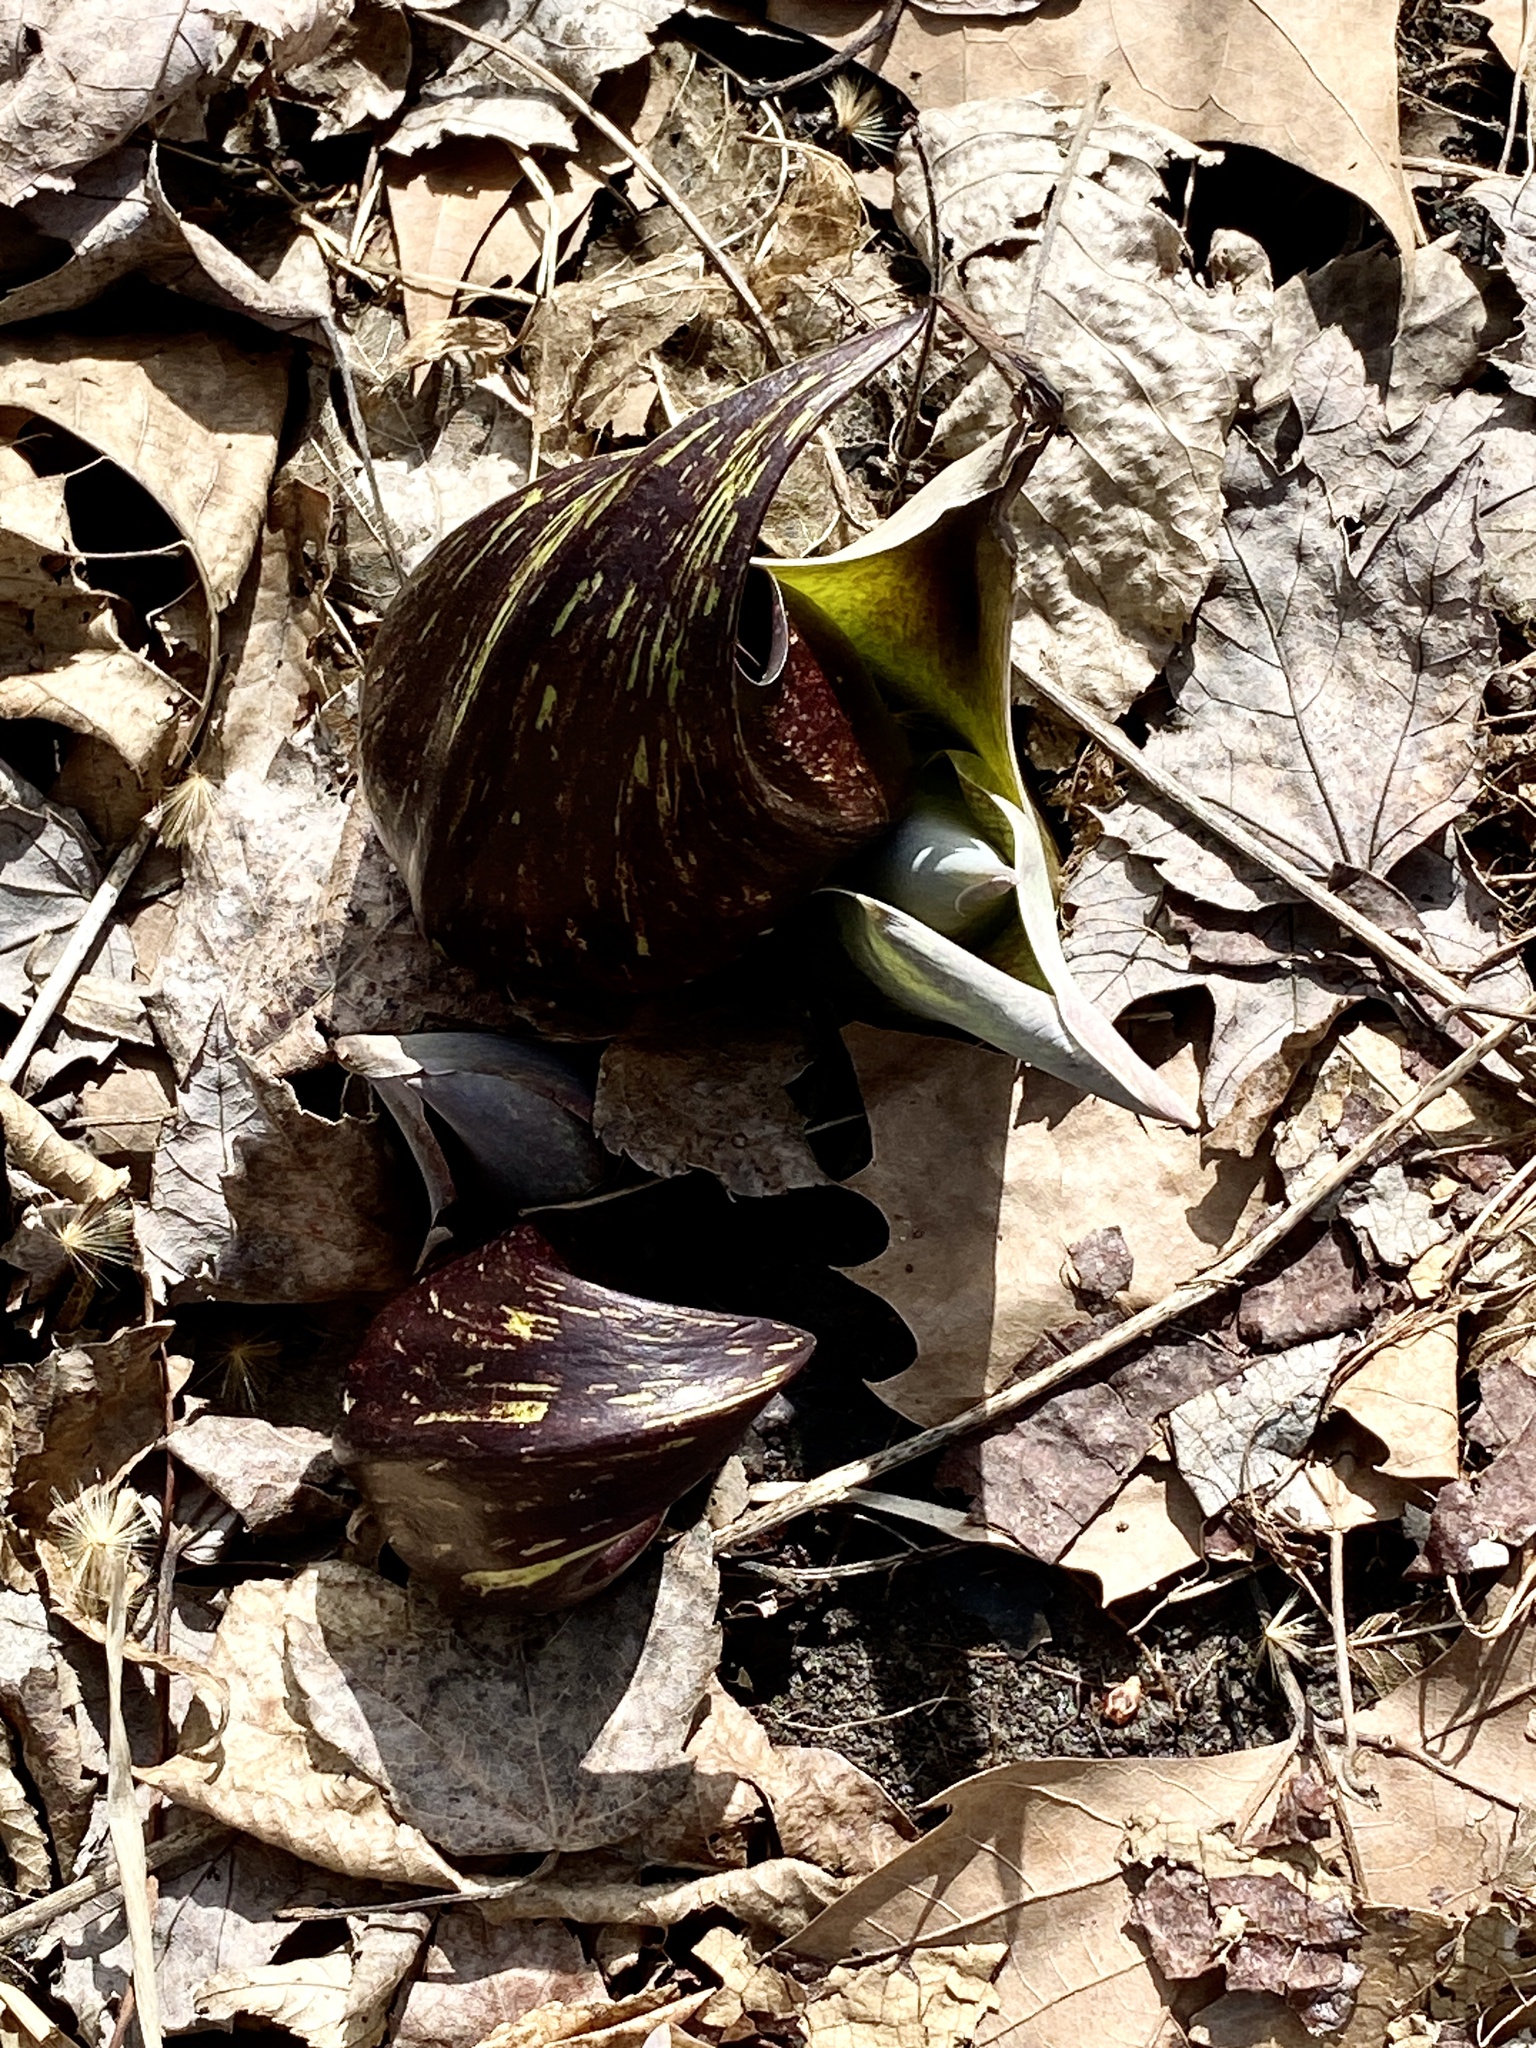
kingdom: Plantae
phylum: Tracheophyta
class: Liliopsida
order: Alismatales
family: Araceae
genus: Symplocarpus
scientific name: Symplocarpus foetidus
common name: Eastern skunk cabbage
